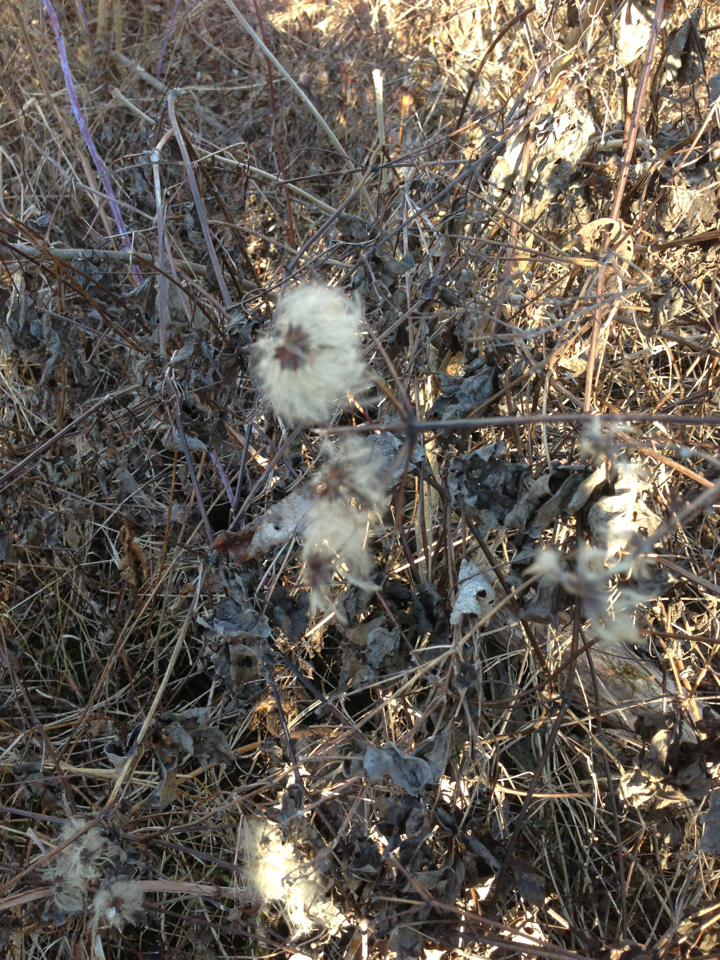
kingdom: Plantae
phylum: Tracheophyta
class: Magnoliopsida
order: Ranunculales
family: Ranunculaceae
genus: Clematis
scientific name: Clematis virginiana
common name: Virgin's-bower
